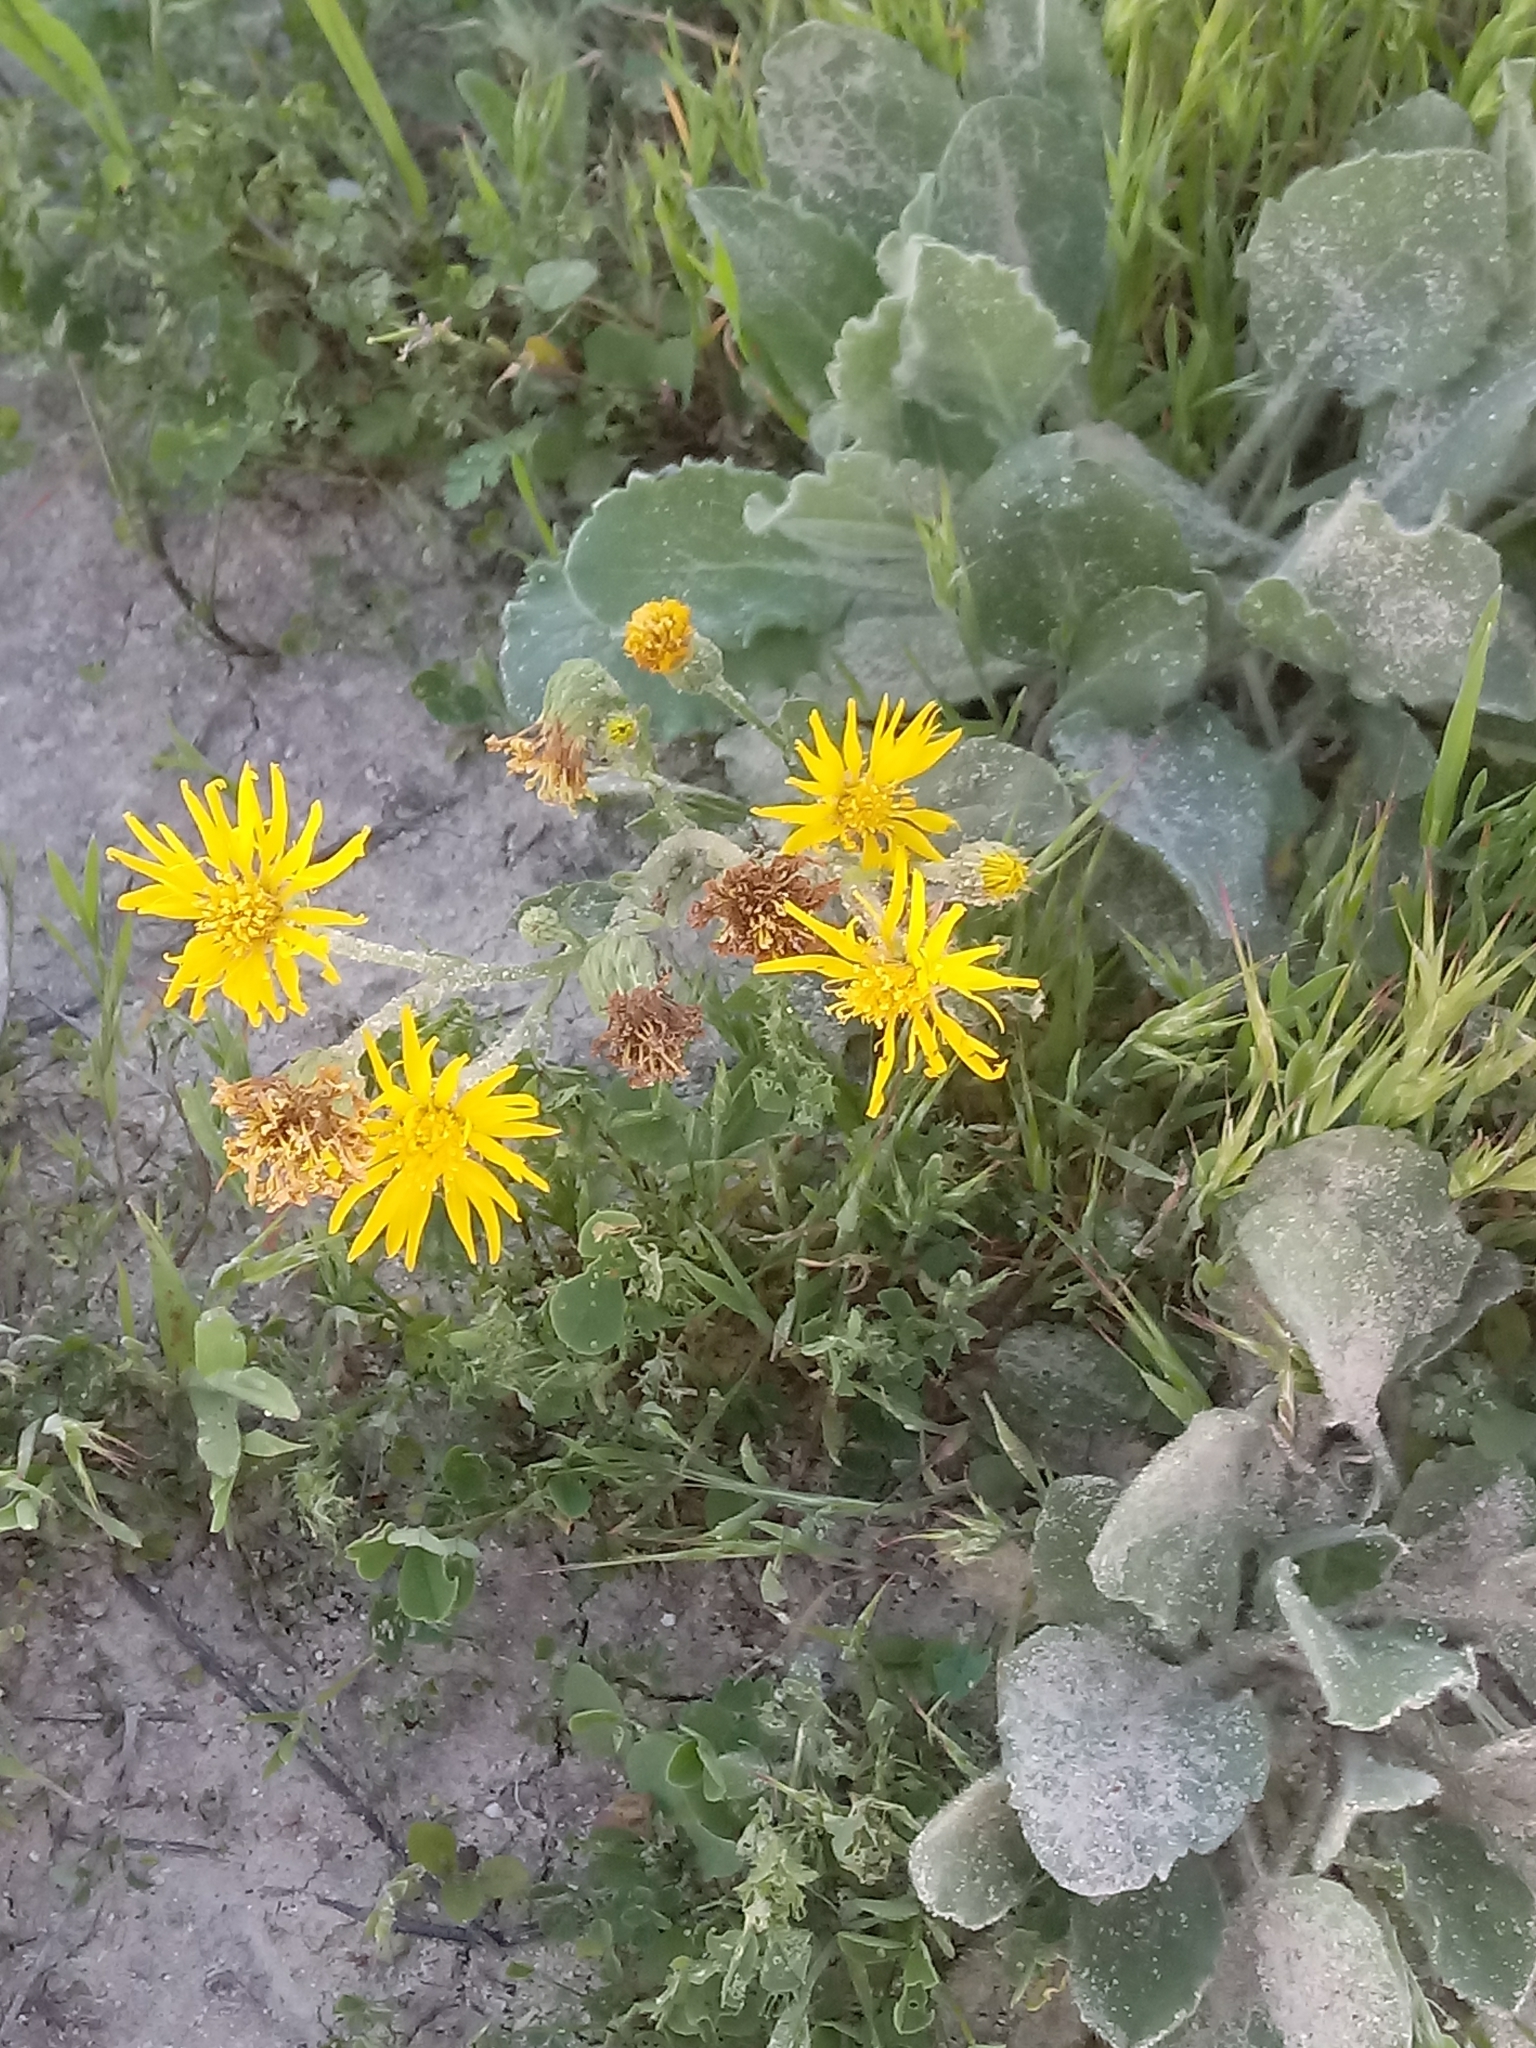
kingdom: Plantae
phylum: Tracheophyta
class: Magnoliopsida
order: Asterales
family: Asteraceae
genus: Heterotheca
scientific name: Heterotheca grandiflora
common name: Telegraphweed
